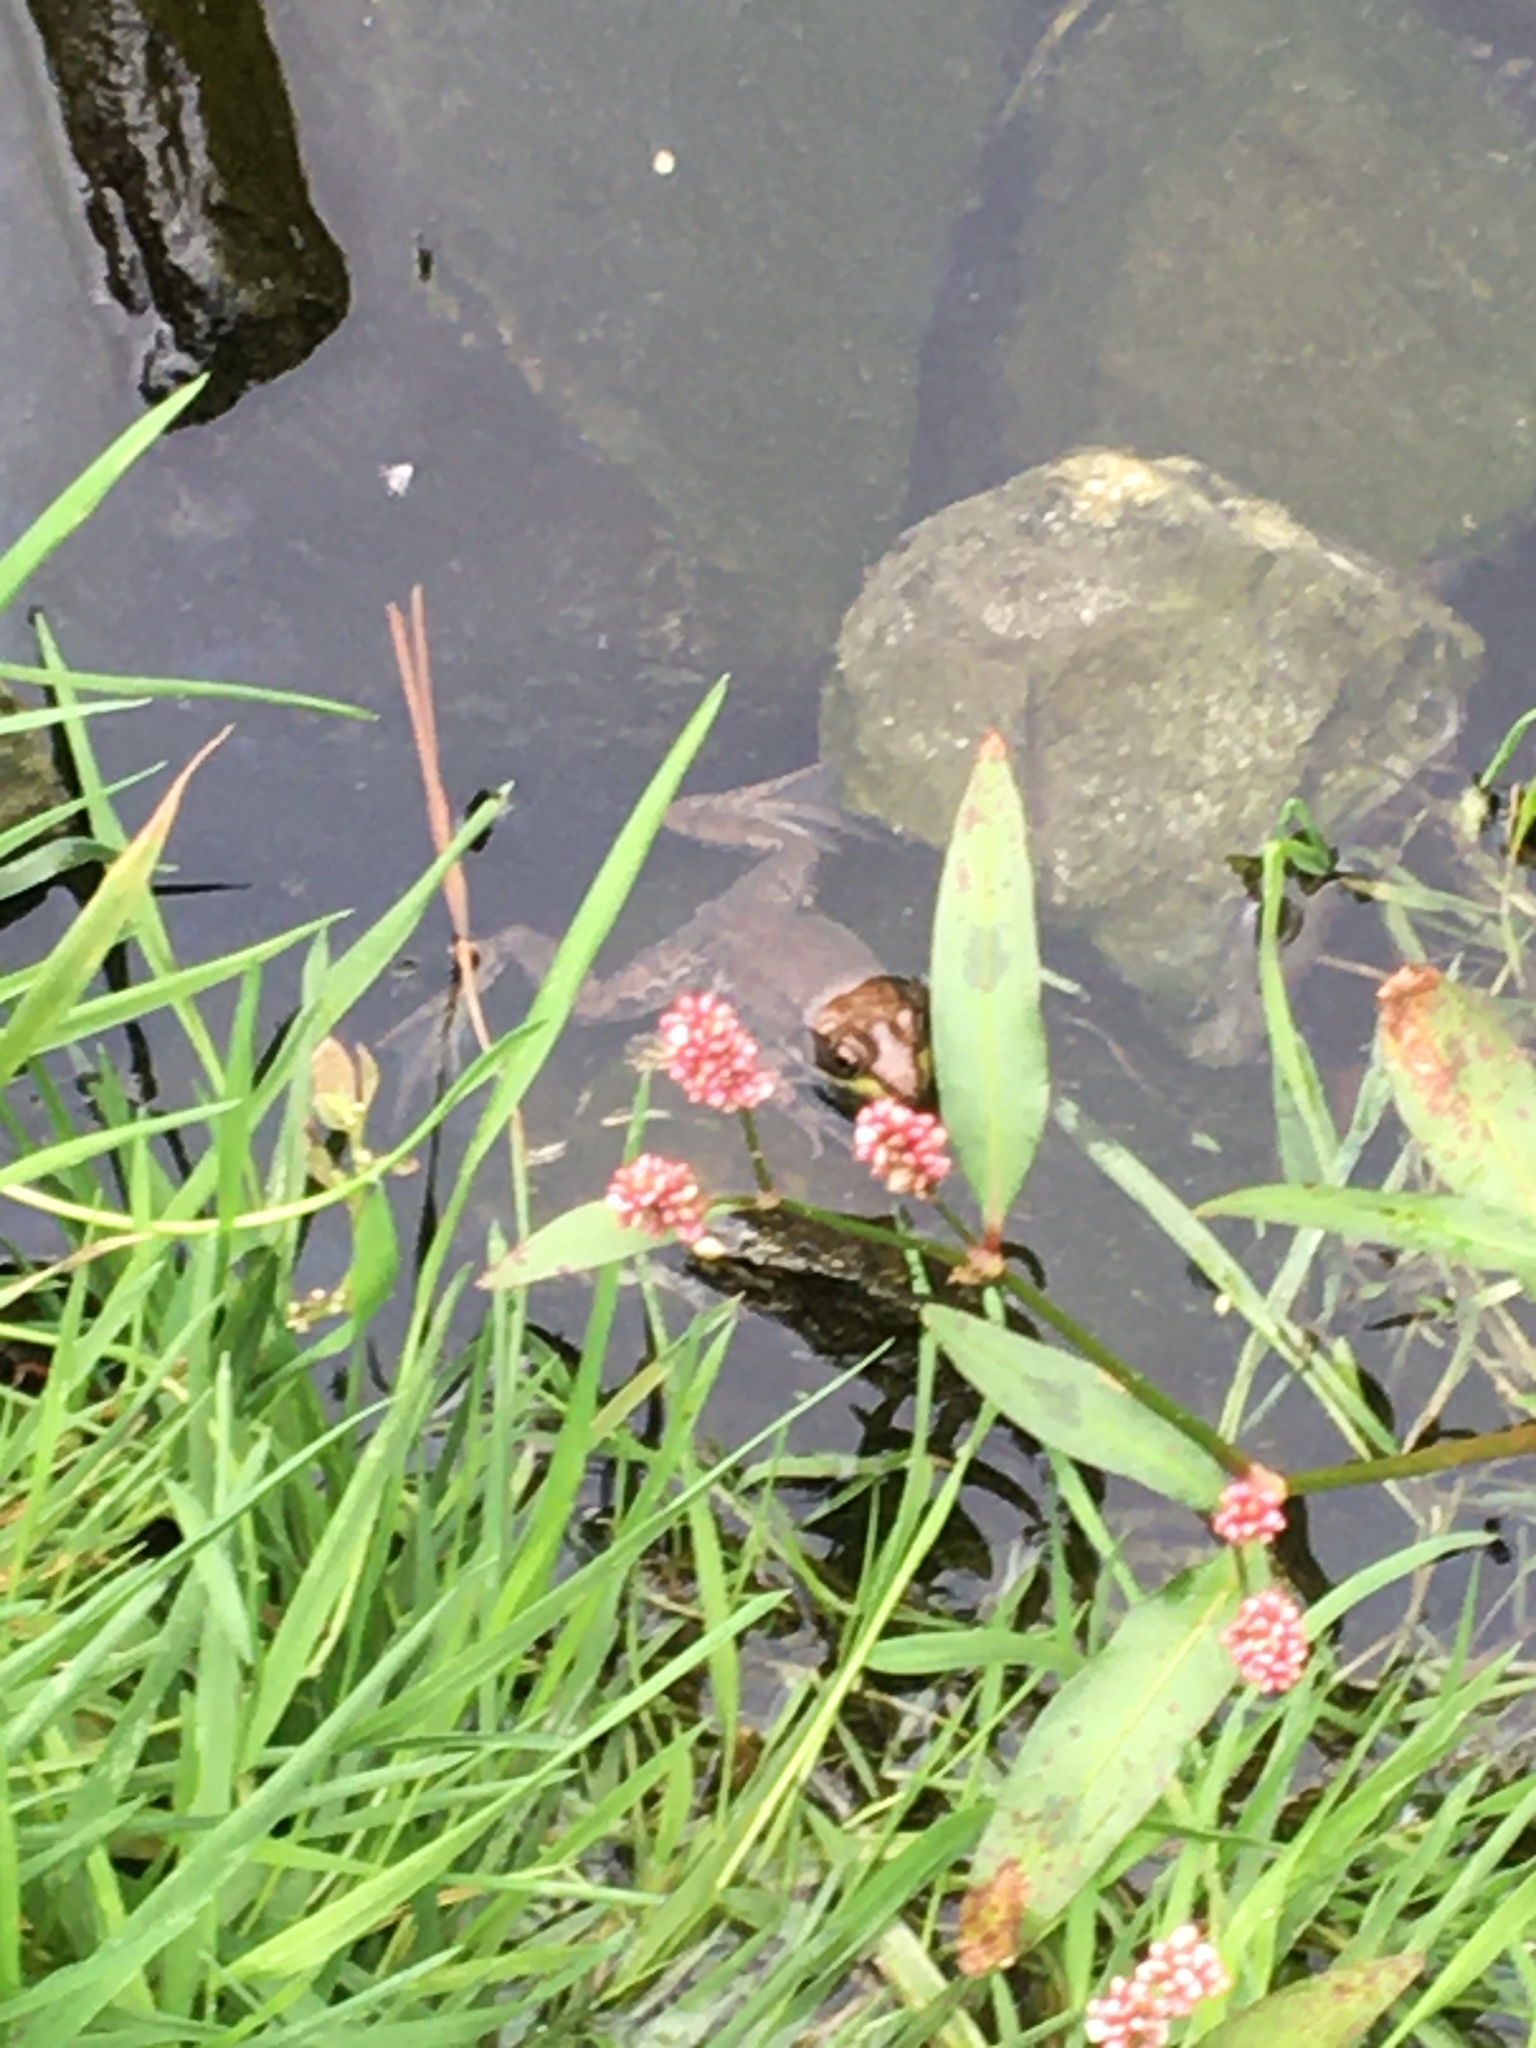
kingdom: Animalia
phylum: Chordata
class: Amphibia
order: Anura
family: Ranidae
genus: Lithobates
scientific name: Lithobates clamitans
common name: Green frog
